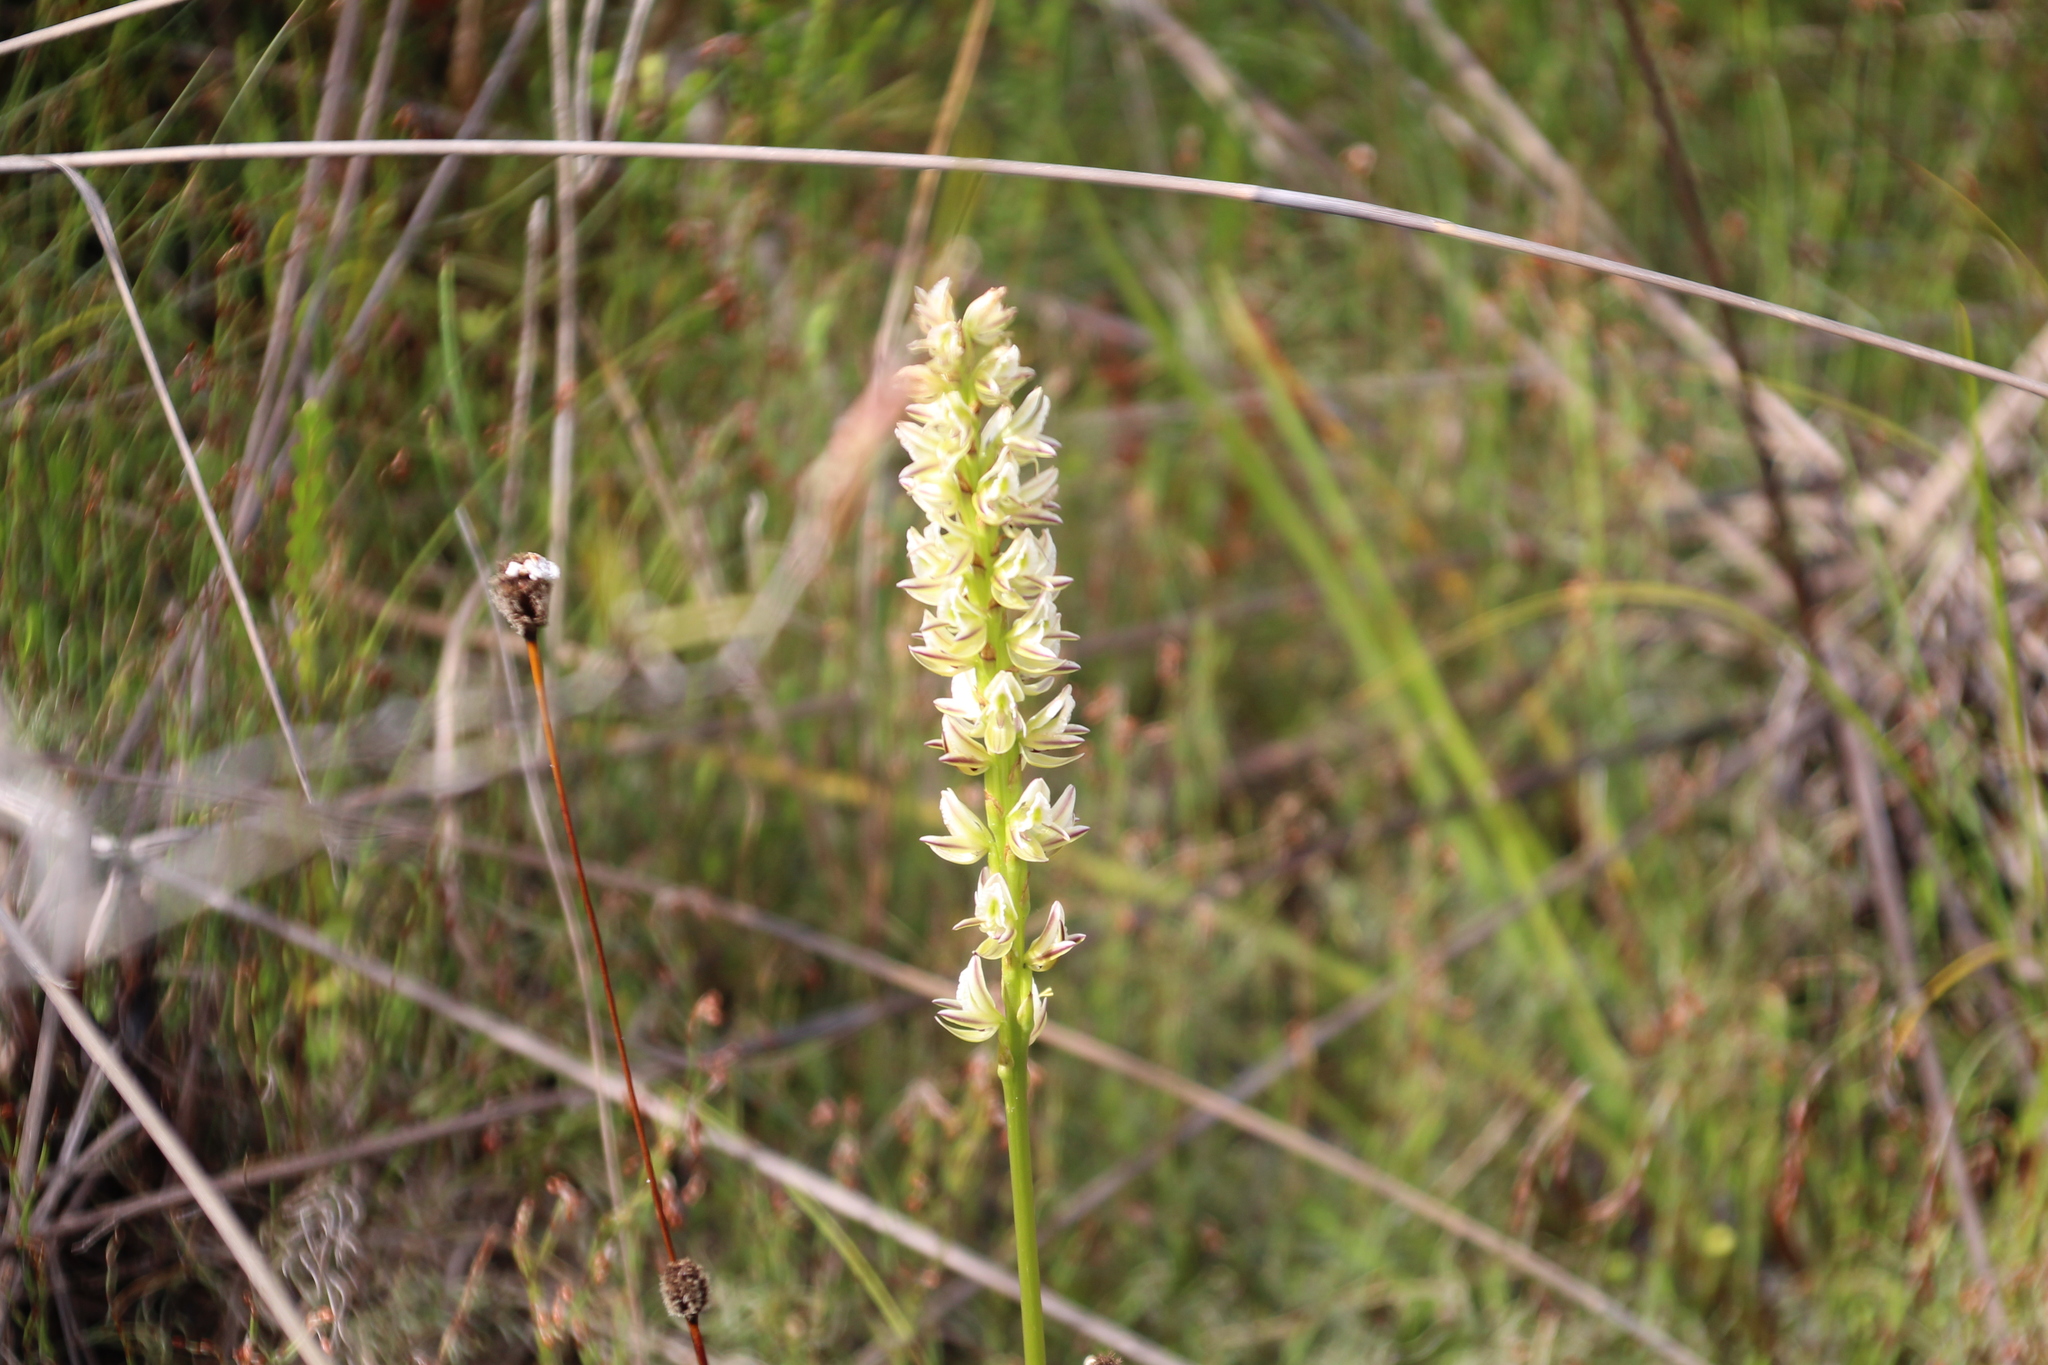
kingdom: Plantae
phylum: Tracheophyta
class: Liliopsida
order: Asparagales
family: Orchidaceae
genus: Prasophyllum
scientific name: Prasophyllum brownii
